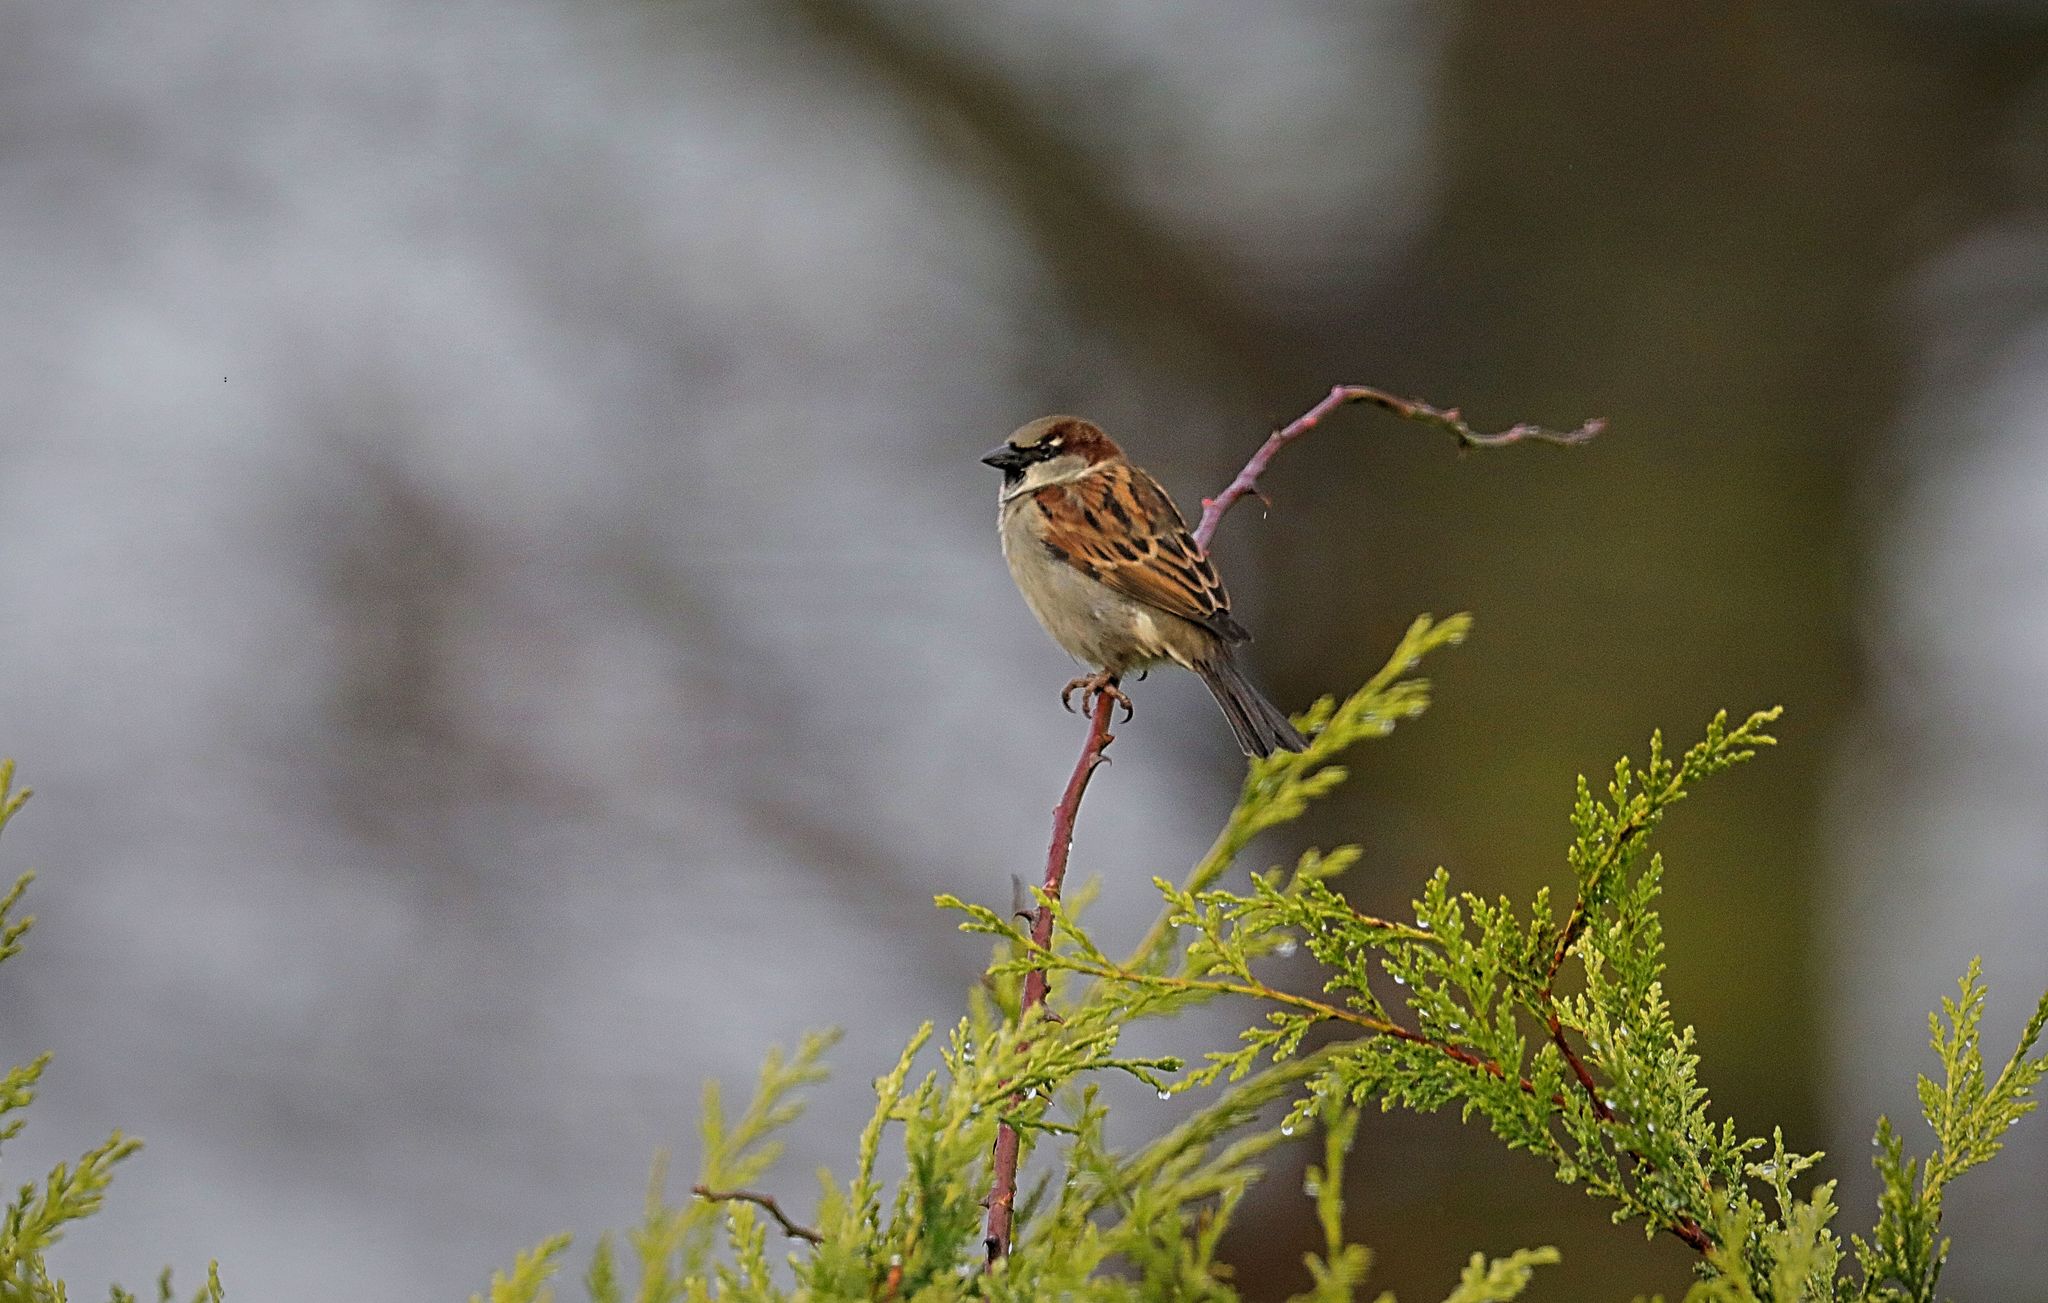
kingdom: Animalia
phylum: Chordata
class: Aves
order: Passeriformes
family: Passeridae
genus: Passer
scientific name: Passer domesticus
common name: House sparrow
